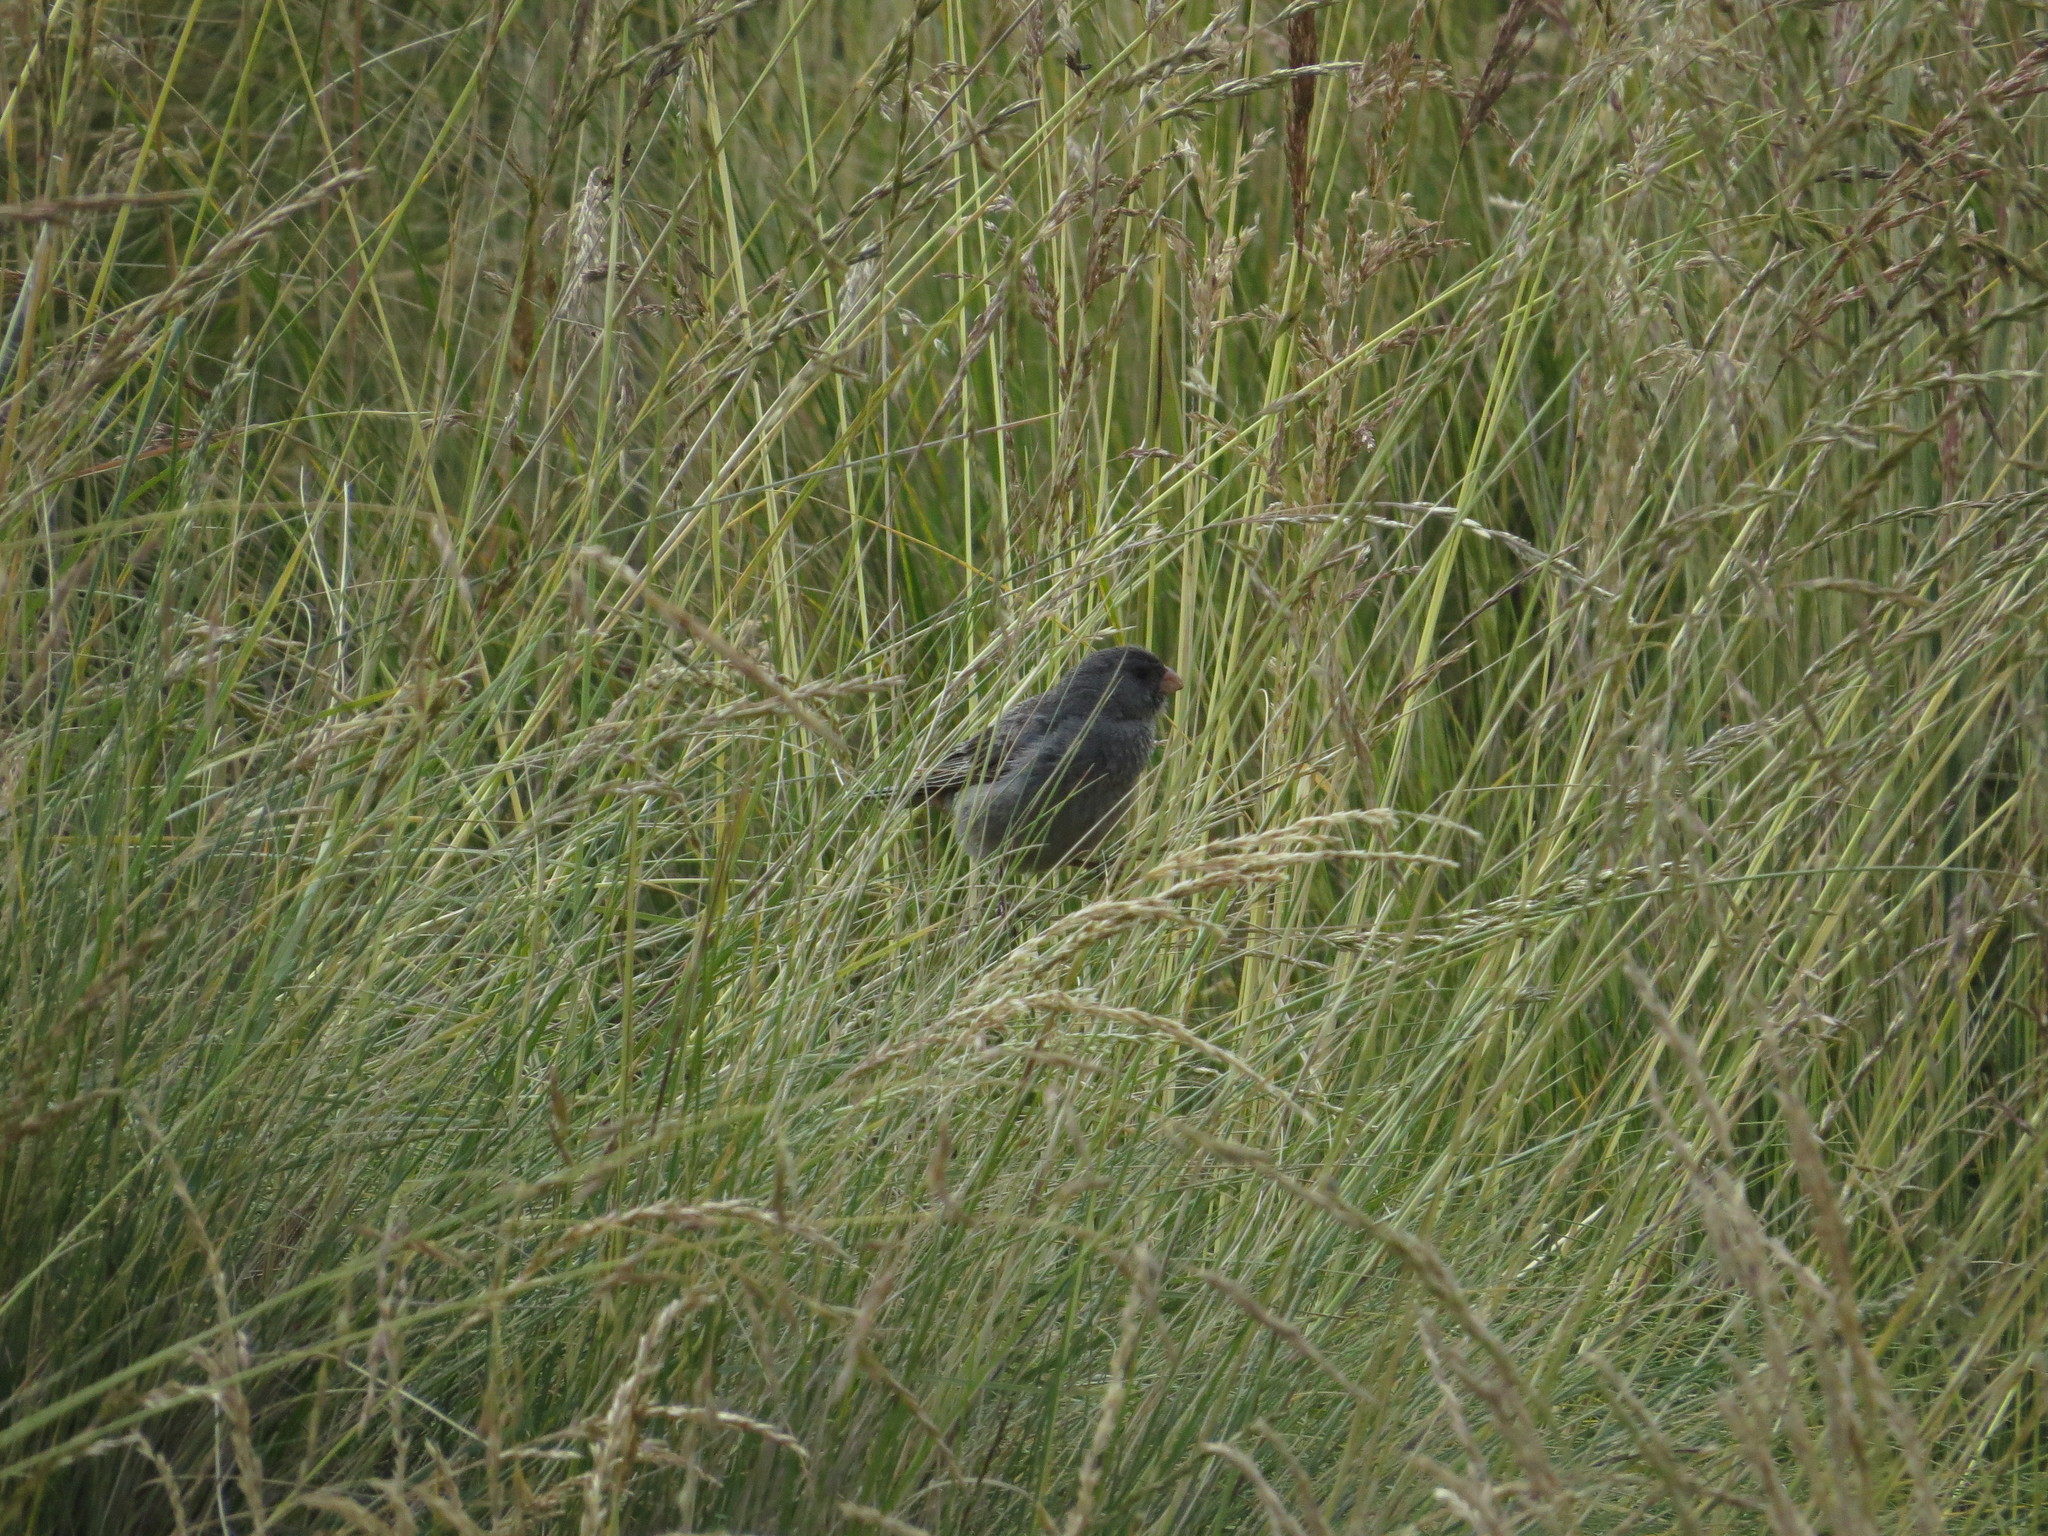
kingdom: Animalia
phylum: Chordata
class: Aves
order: Passeriformes
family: Thraupidae
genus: Catamenia
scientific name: Catamenia inornata
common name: Plain-colored seedeater
